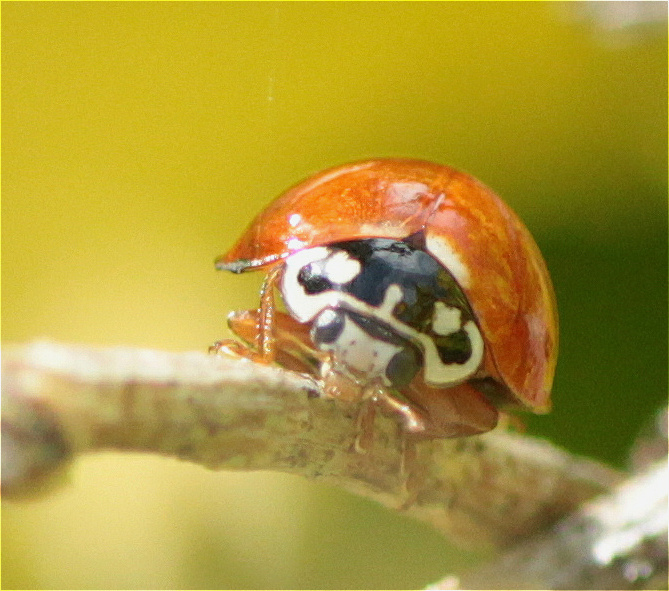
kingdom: Animalia
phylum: Arthropoda
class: Insecta
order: Coleoptera
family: Coccinellidae
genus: Cycloneda
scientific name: Cycloneda sanguinea
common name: Ladybird beetle
